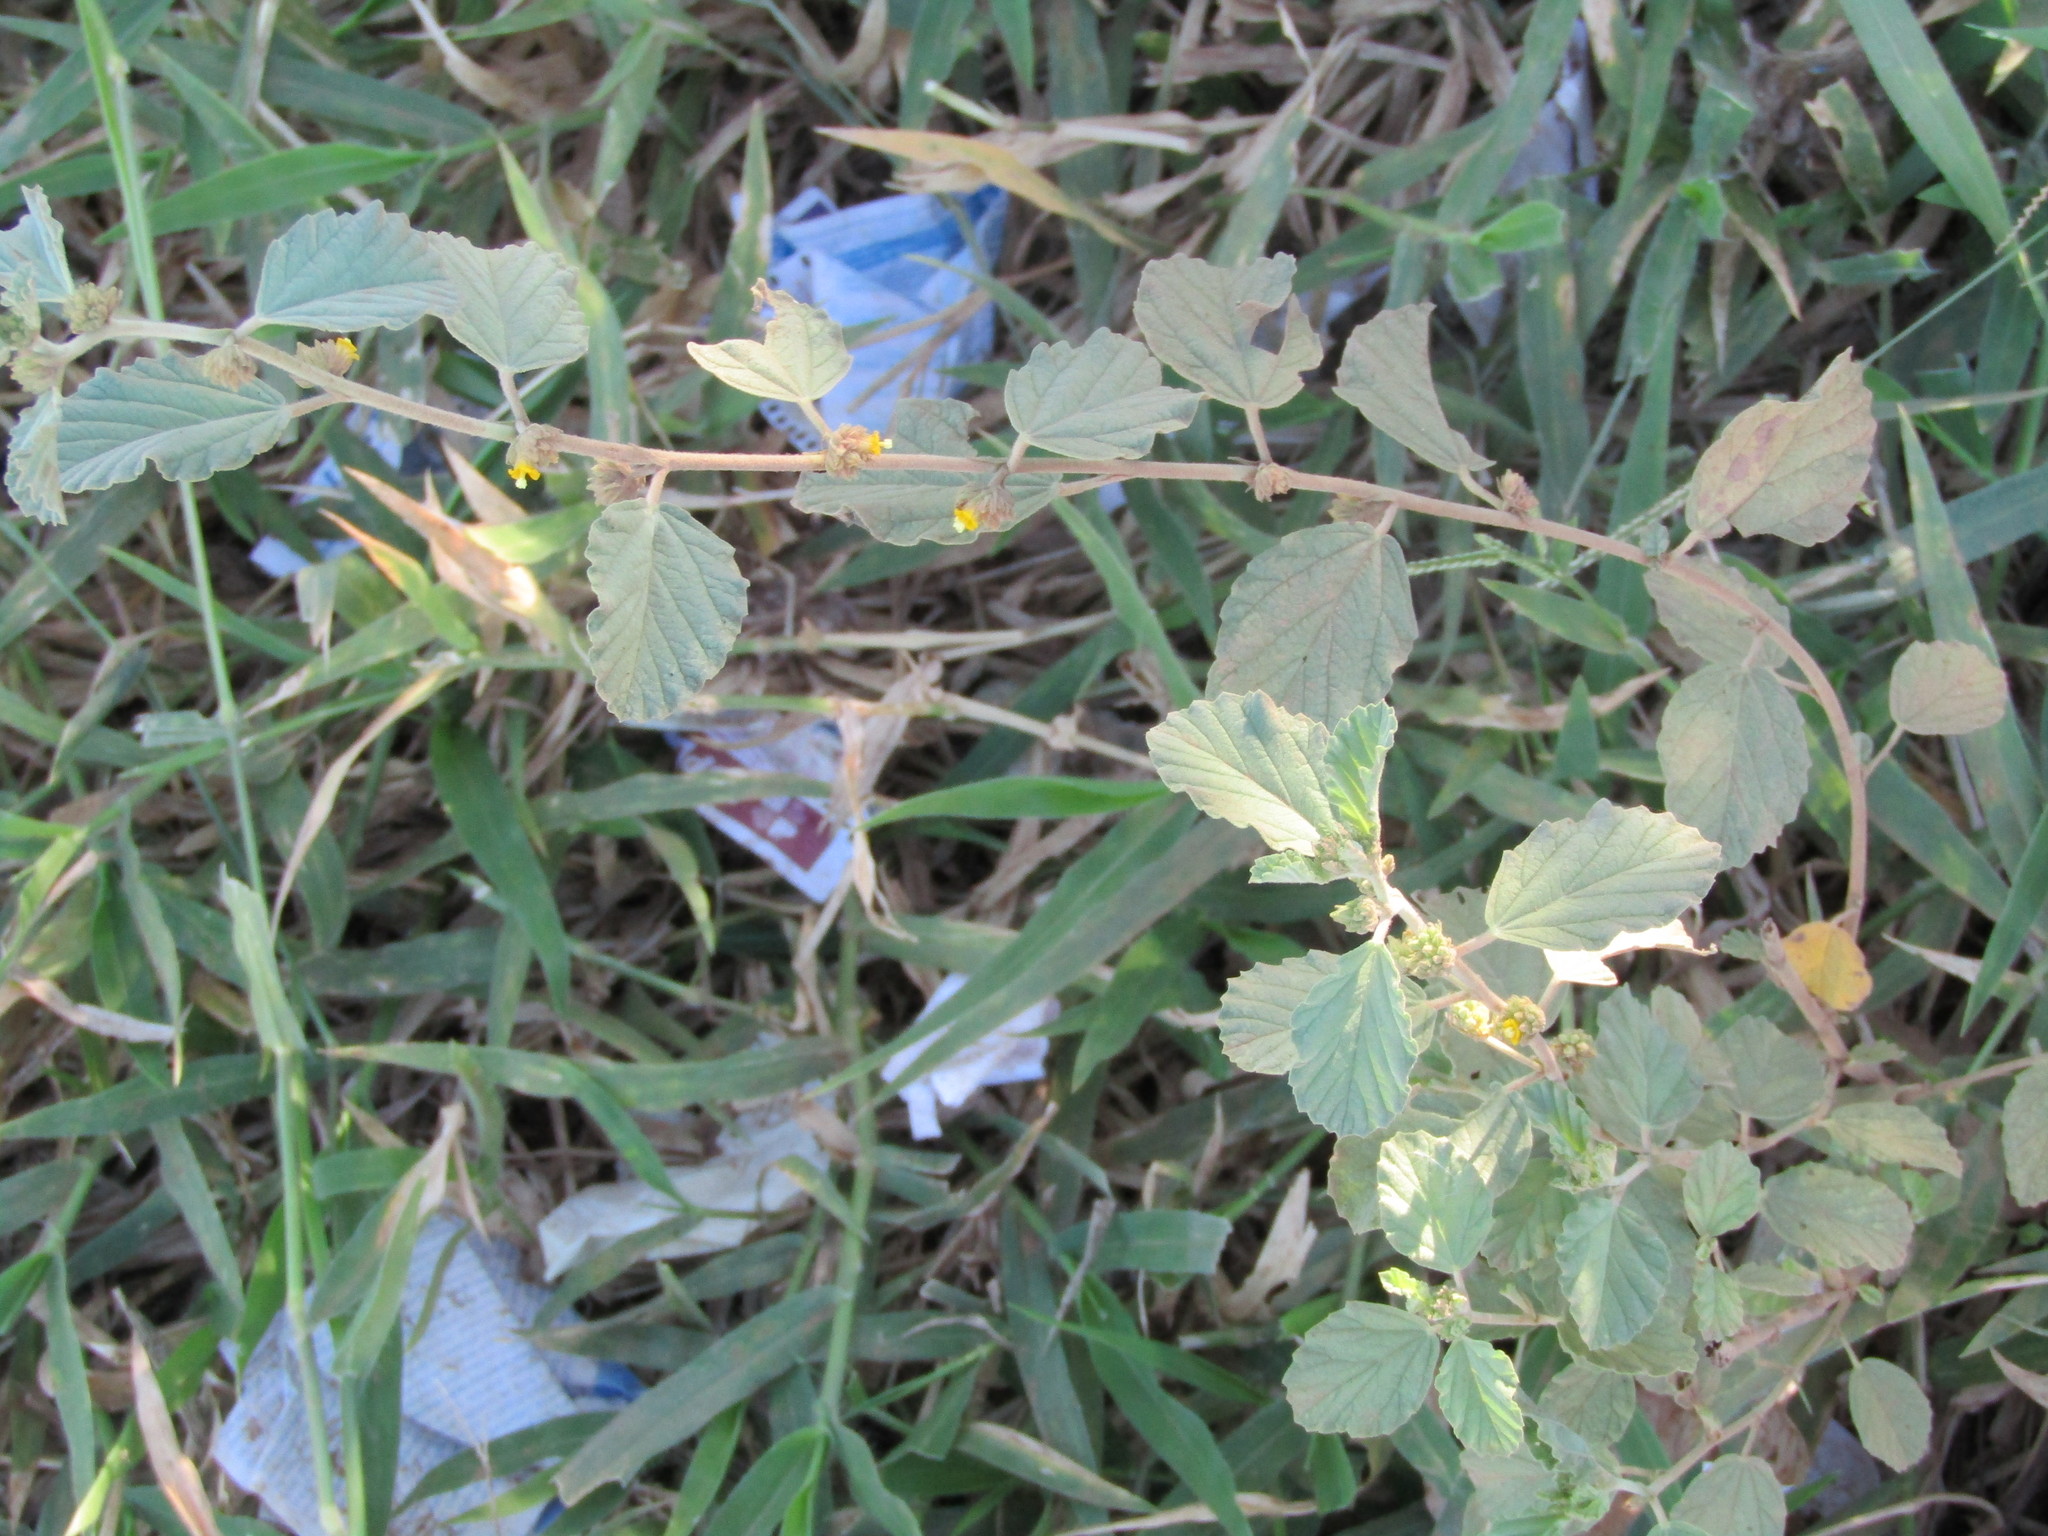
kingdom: Plantae
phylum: Tracheophyta
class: Magnoliopsida
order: Malvales
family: Malvaceae
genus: Waltheria
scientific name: Waltheria rotundifolia
